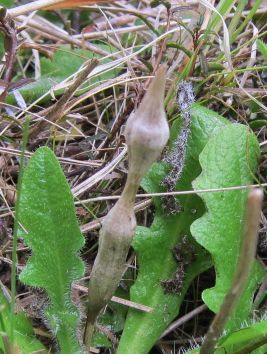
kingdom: Animalia
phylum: Arthropoda
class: Insecta
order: Hymenoptera
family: Cynipidae
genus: Phanacis
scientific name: Phanacis hypochoeridis
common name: Gall wasp
